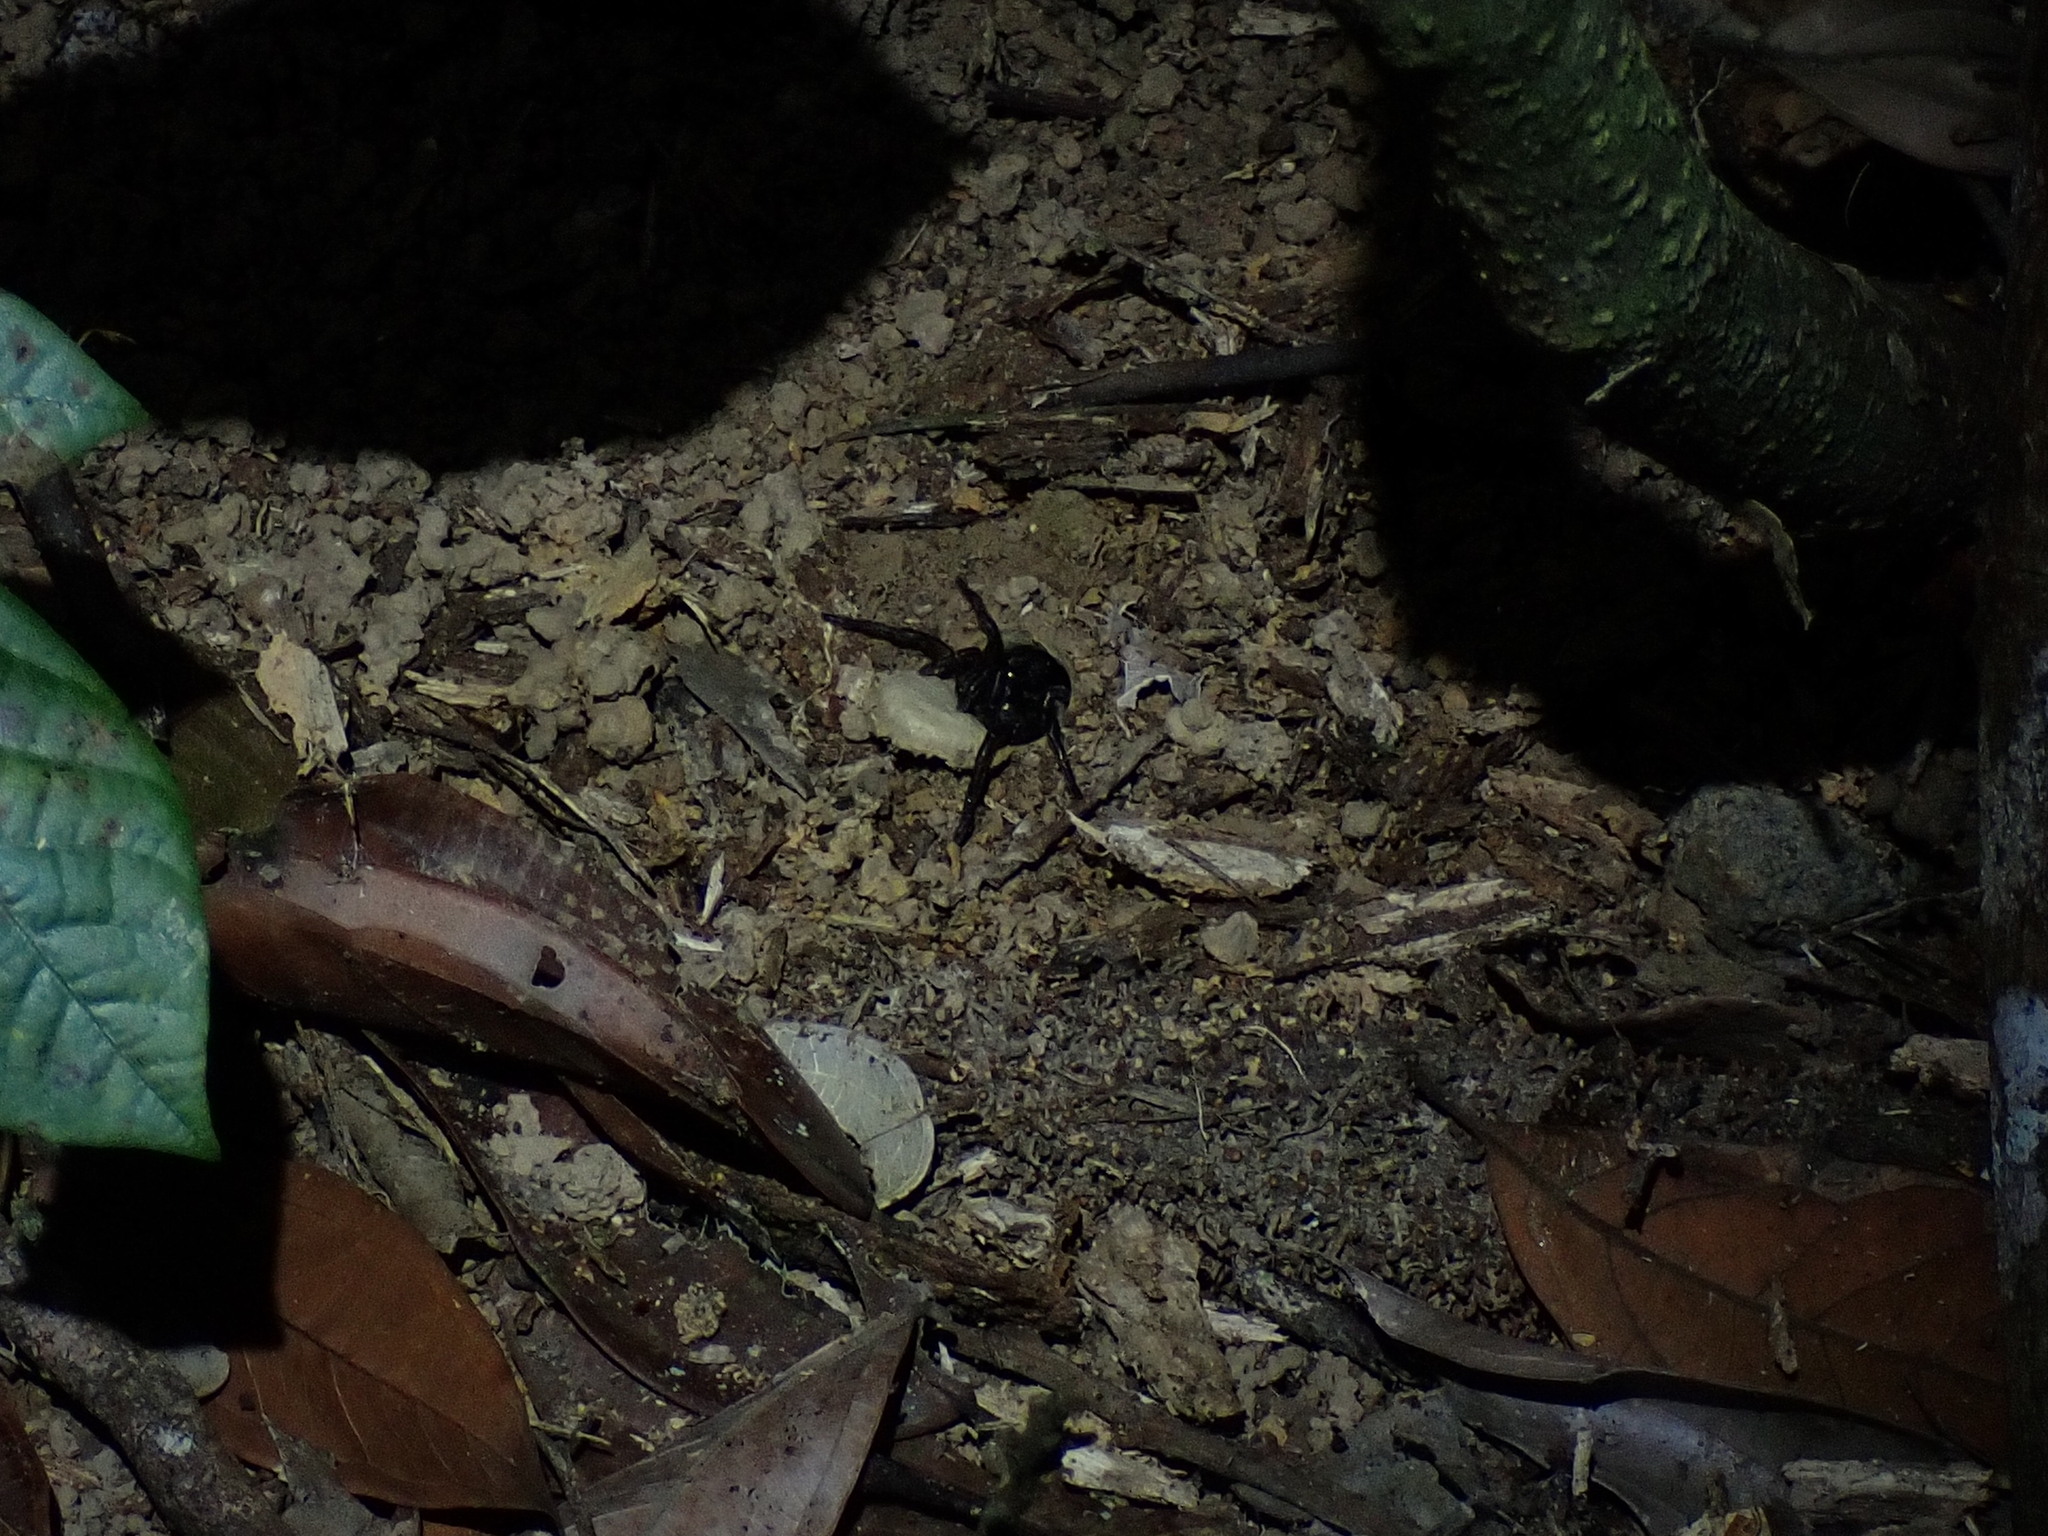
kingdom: Animalia
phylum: Arthropoda
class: Arachnida
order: Araneae
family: Barychelidae
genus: Trittame
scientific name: Trittame loki
